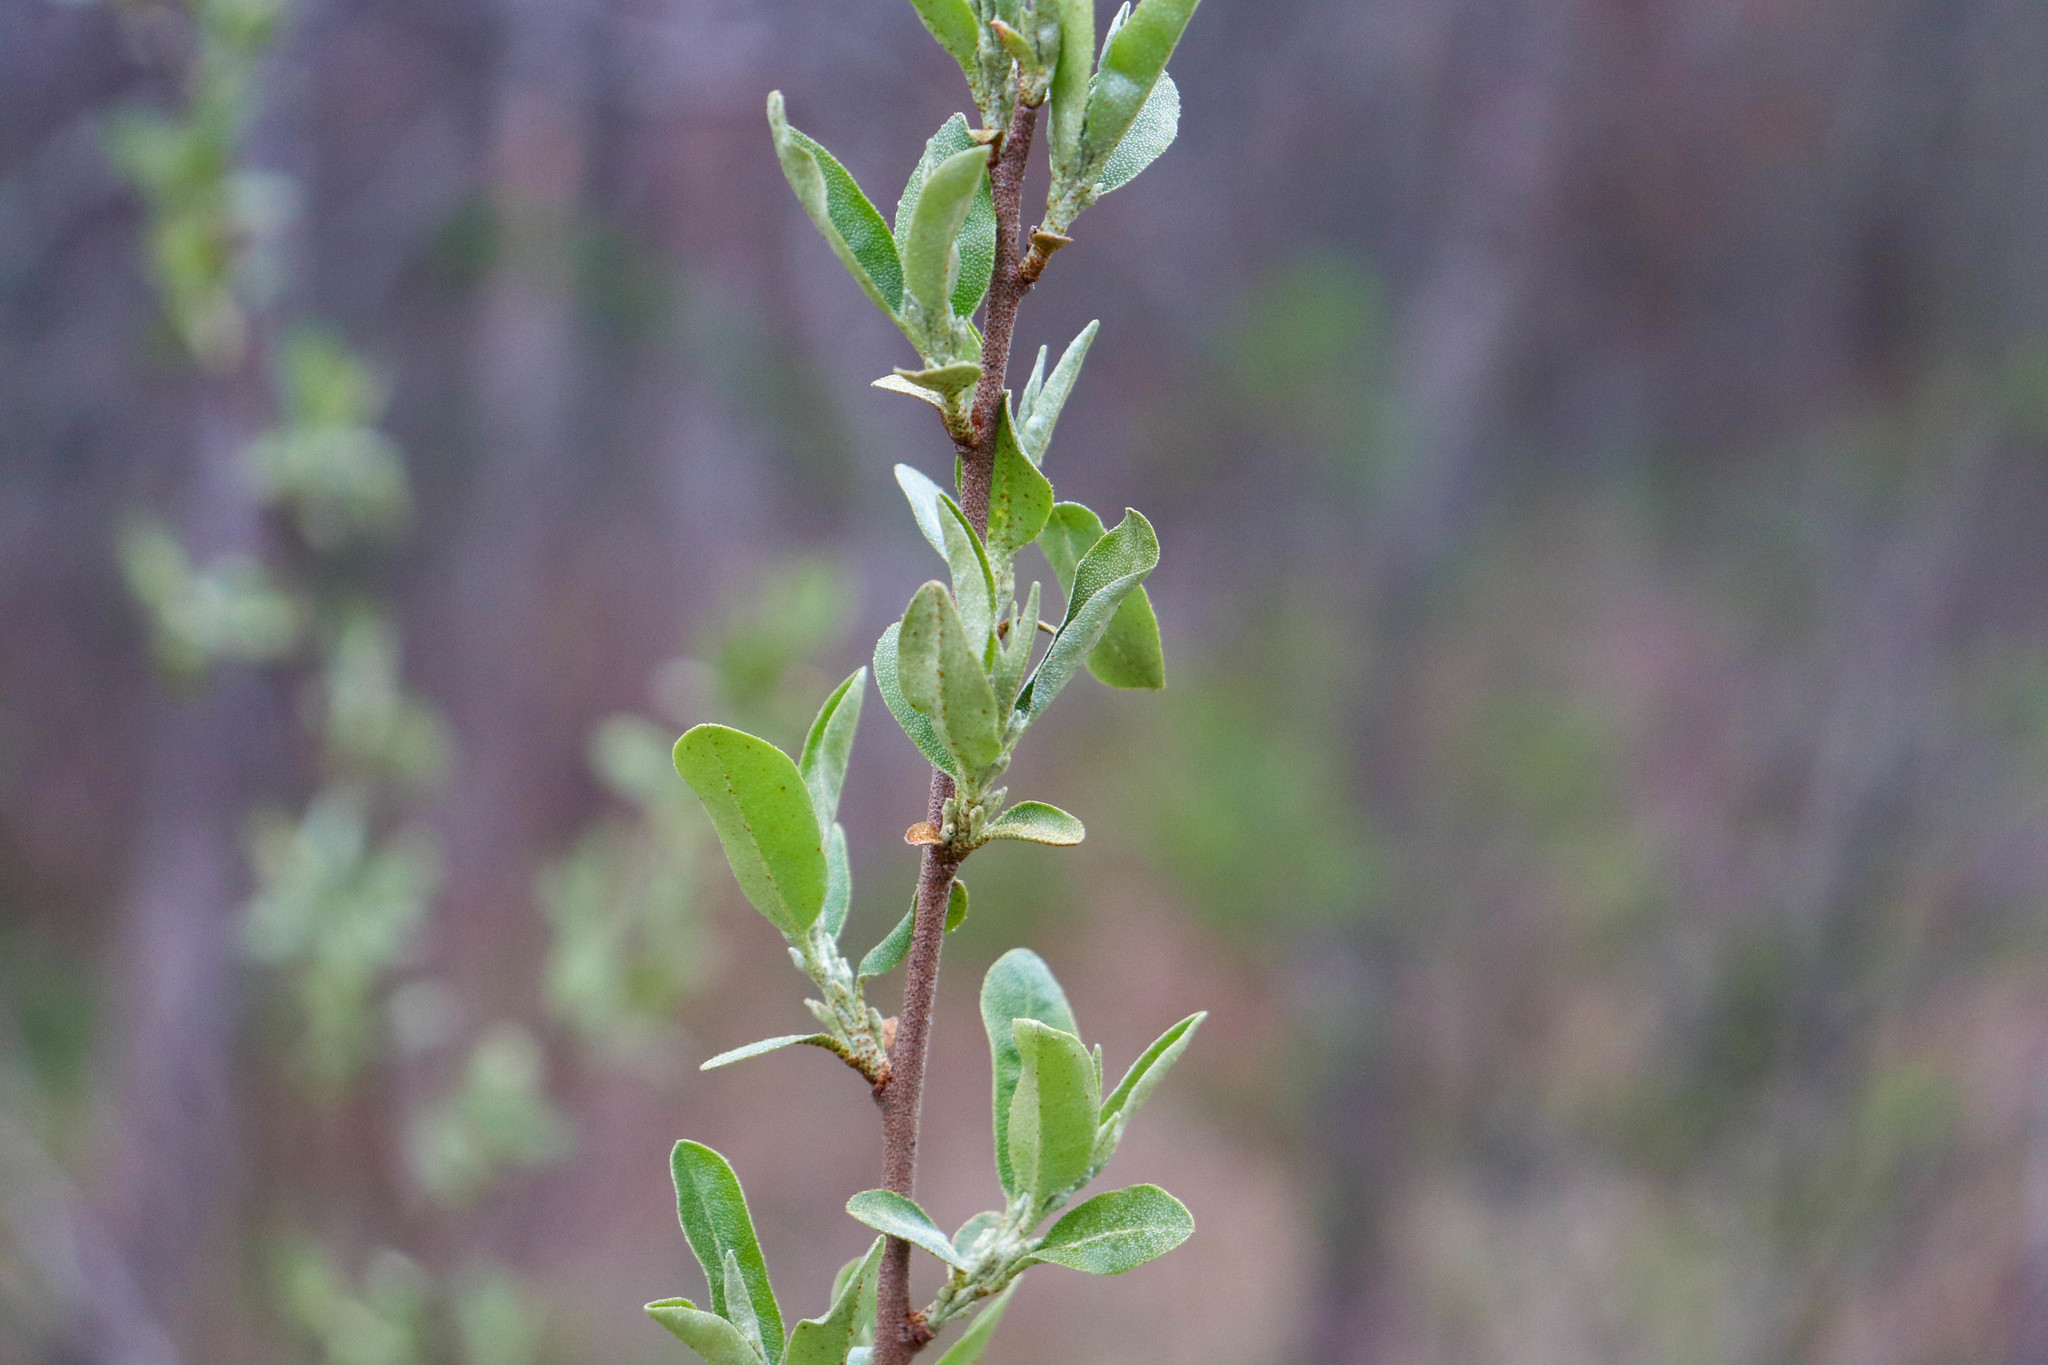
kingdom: Plantae
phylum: Tracheophyta
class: Magnoliopsida
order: Rosales
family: Elaeagnaceae
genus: Elaeagnus
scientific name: Elaeagnus umbellata
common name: Autumn olive
